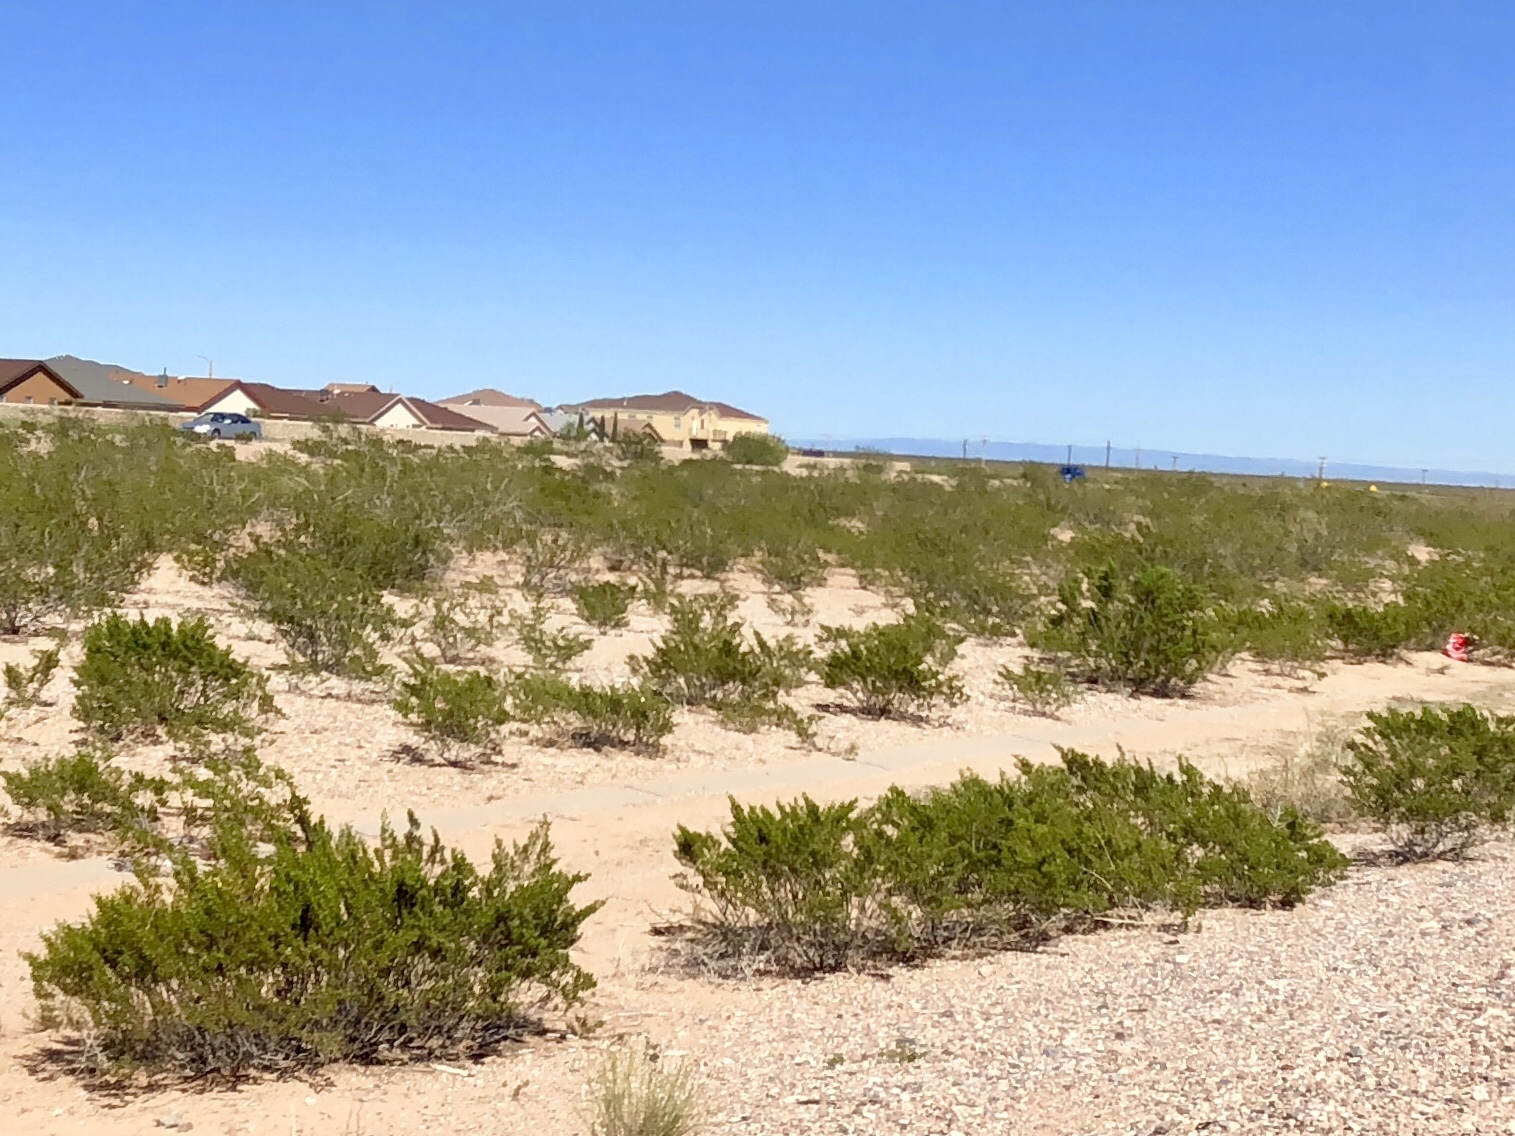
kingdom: Plantae
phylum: Tracheophyta
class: Magnoliopsida
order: Zygophyllales
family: Zygophyllaceae
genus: Larrea
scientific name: Larrea tridentata
